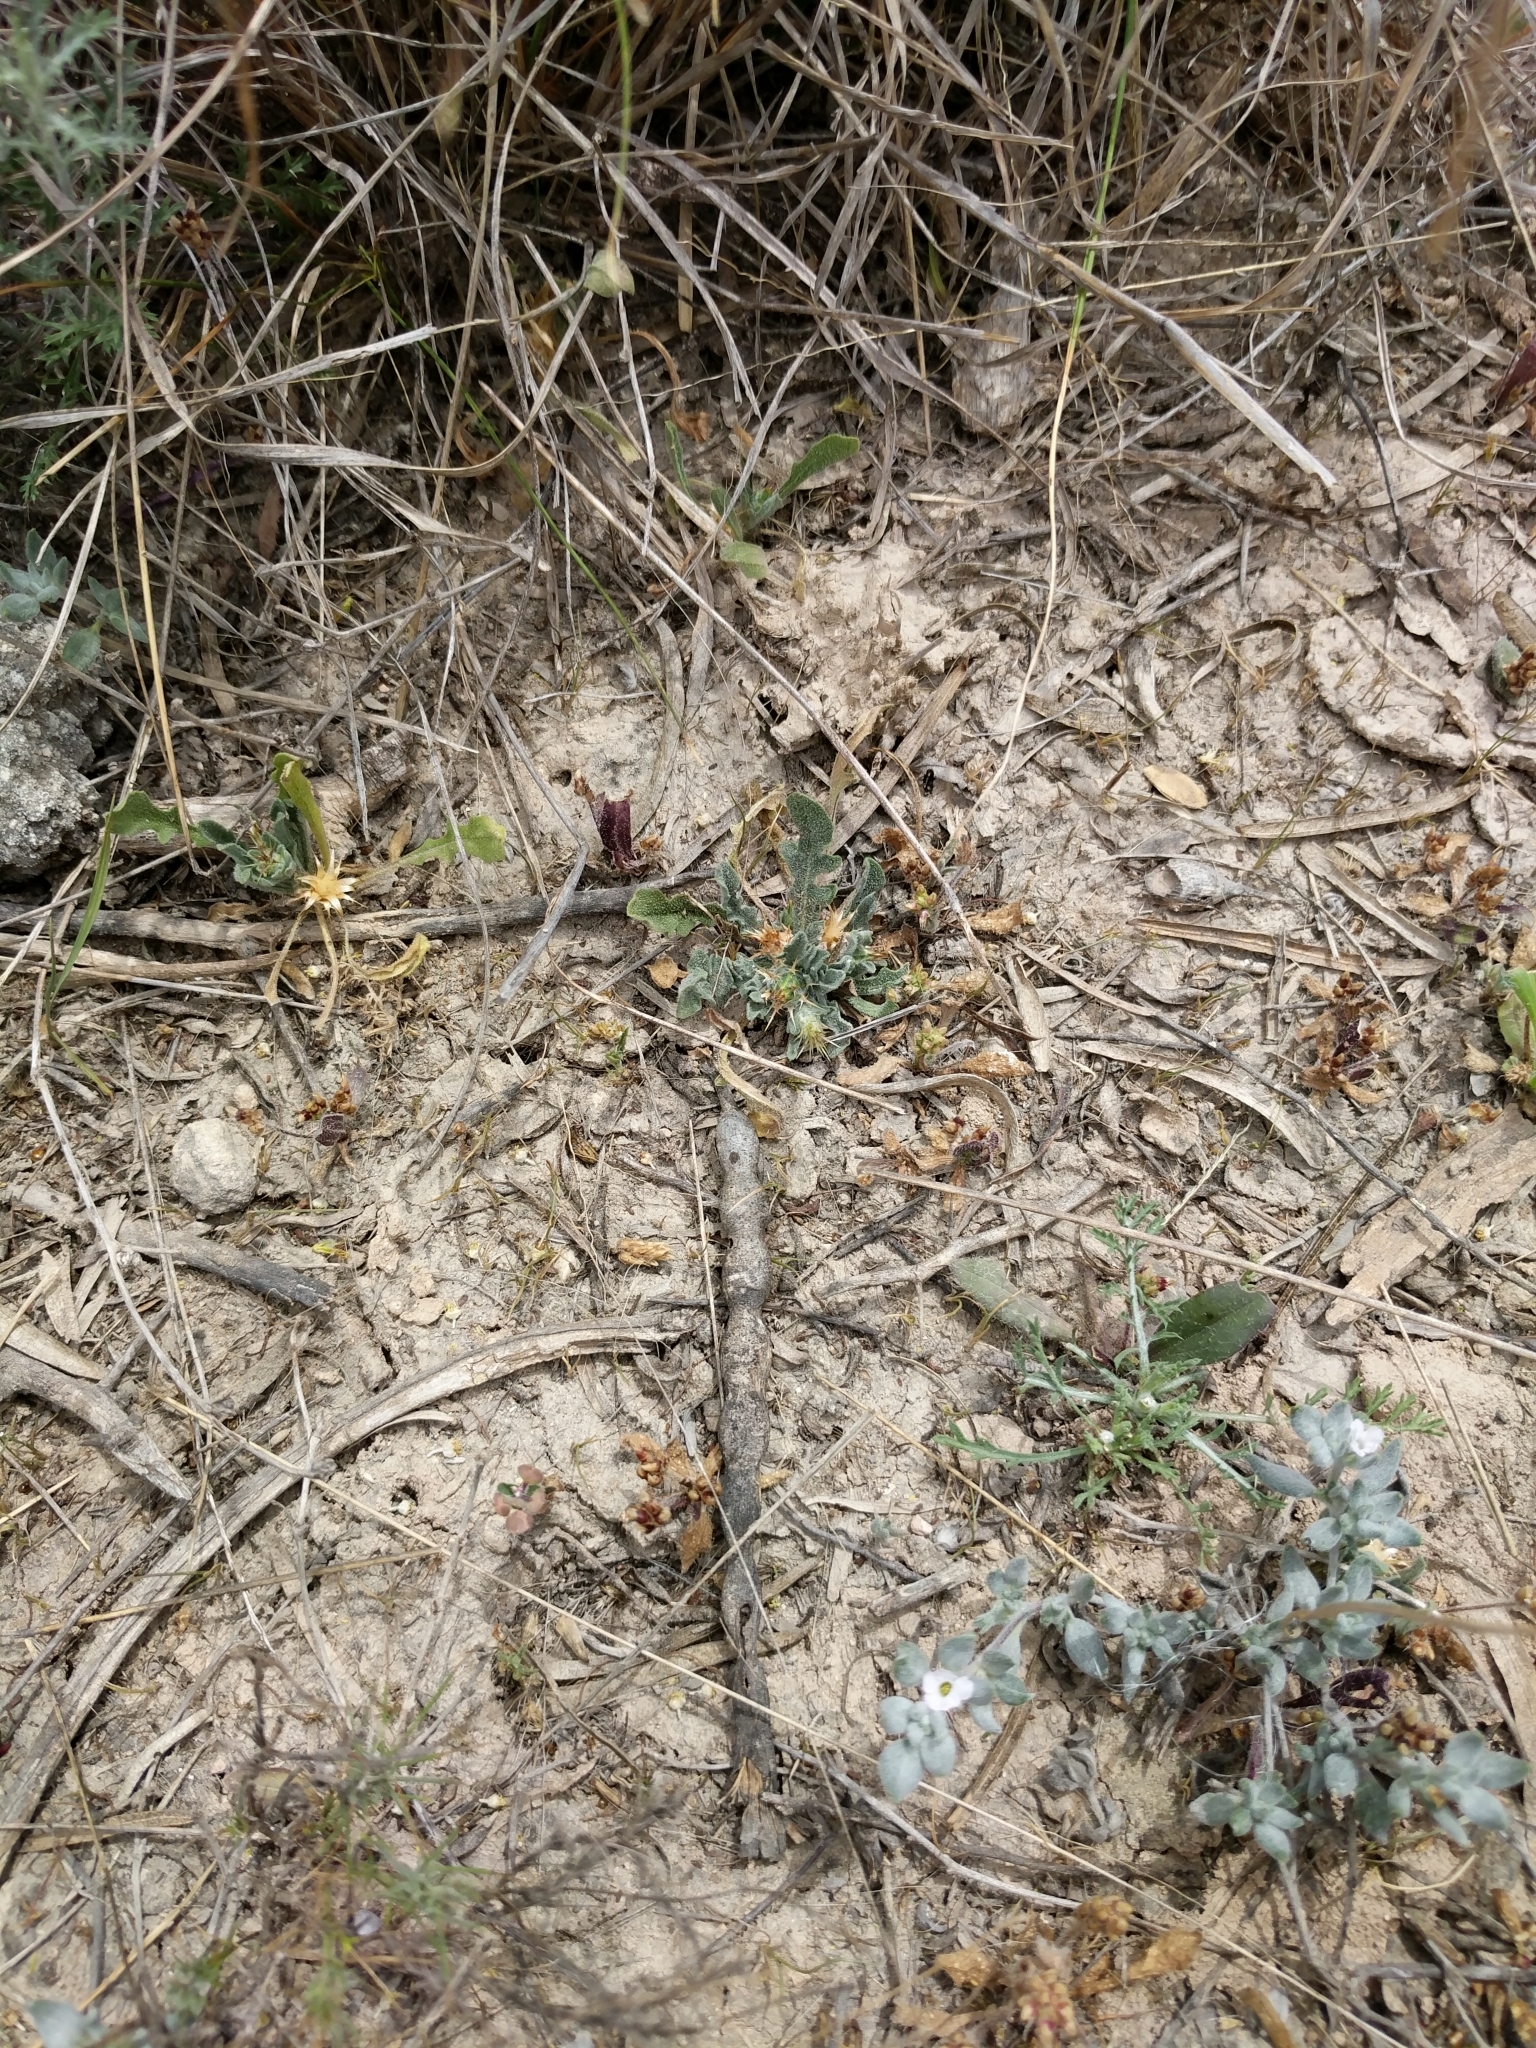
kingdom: Plantae
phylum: Tracheophyta
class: Magnoliopsida
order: Asterales
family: Asteraceae
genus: Centaurea
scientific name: Centaurea melitensis
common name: Maltese star-thistle
